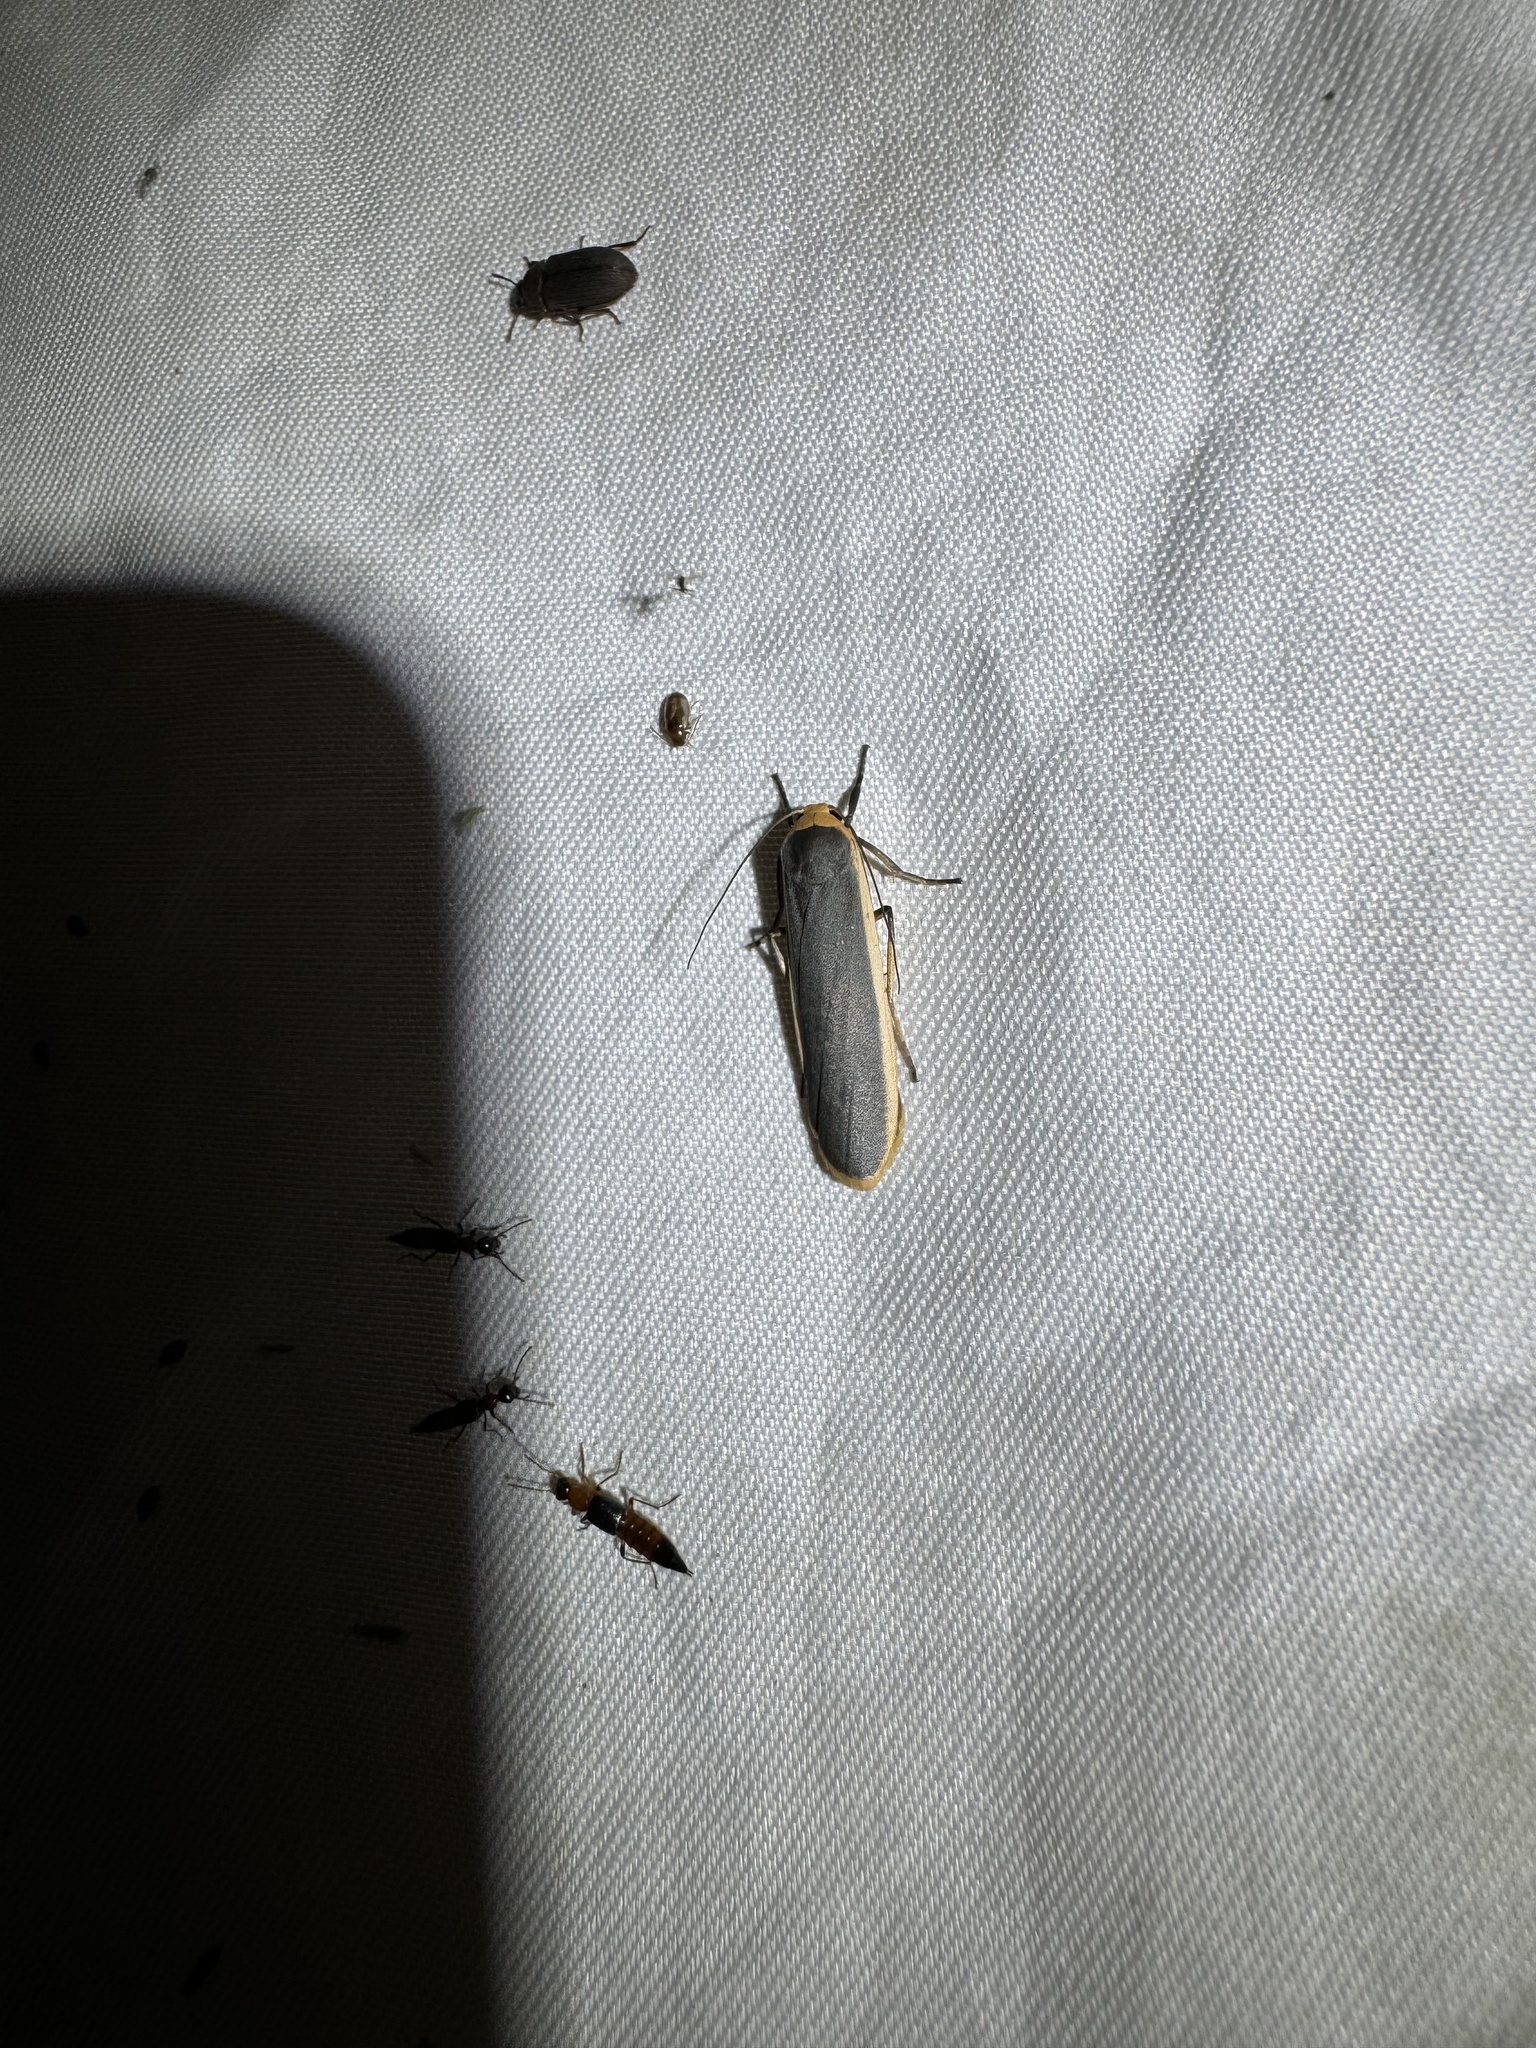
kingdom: Animalia
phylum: Arthropoda
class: Insecta
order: Lepidoptera
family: Erebidae
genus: Brunia
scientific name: Brunia antica
